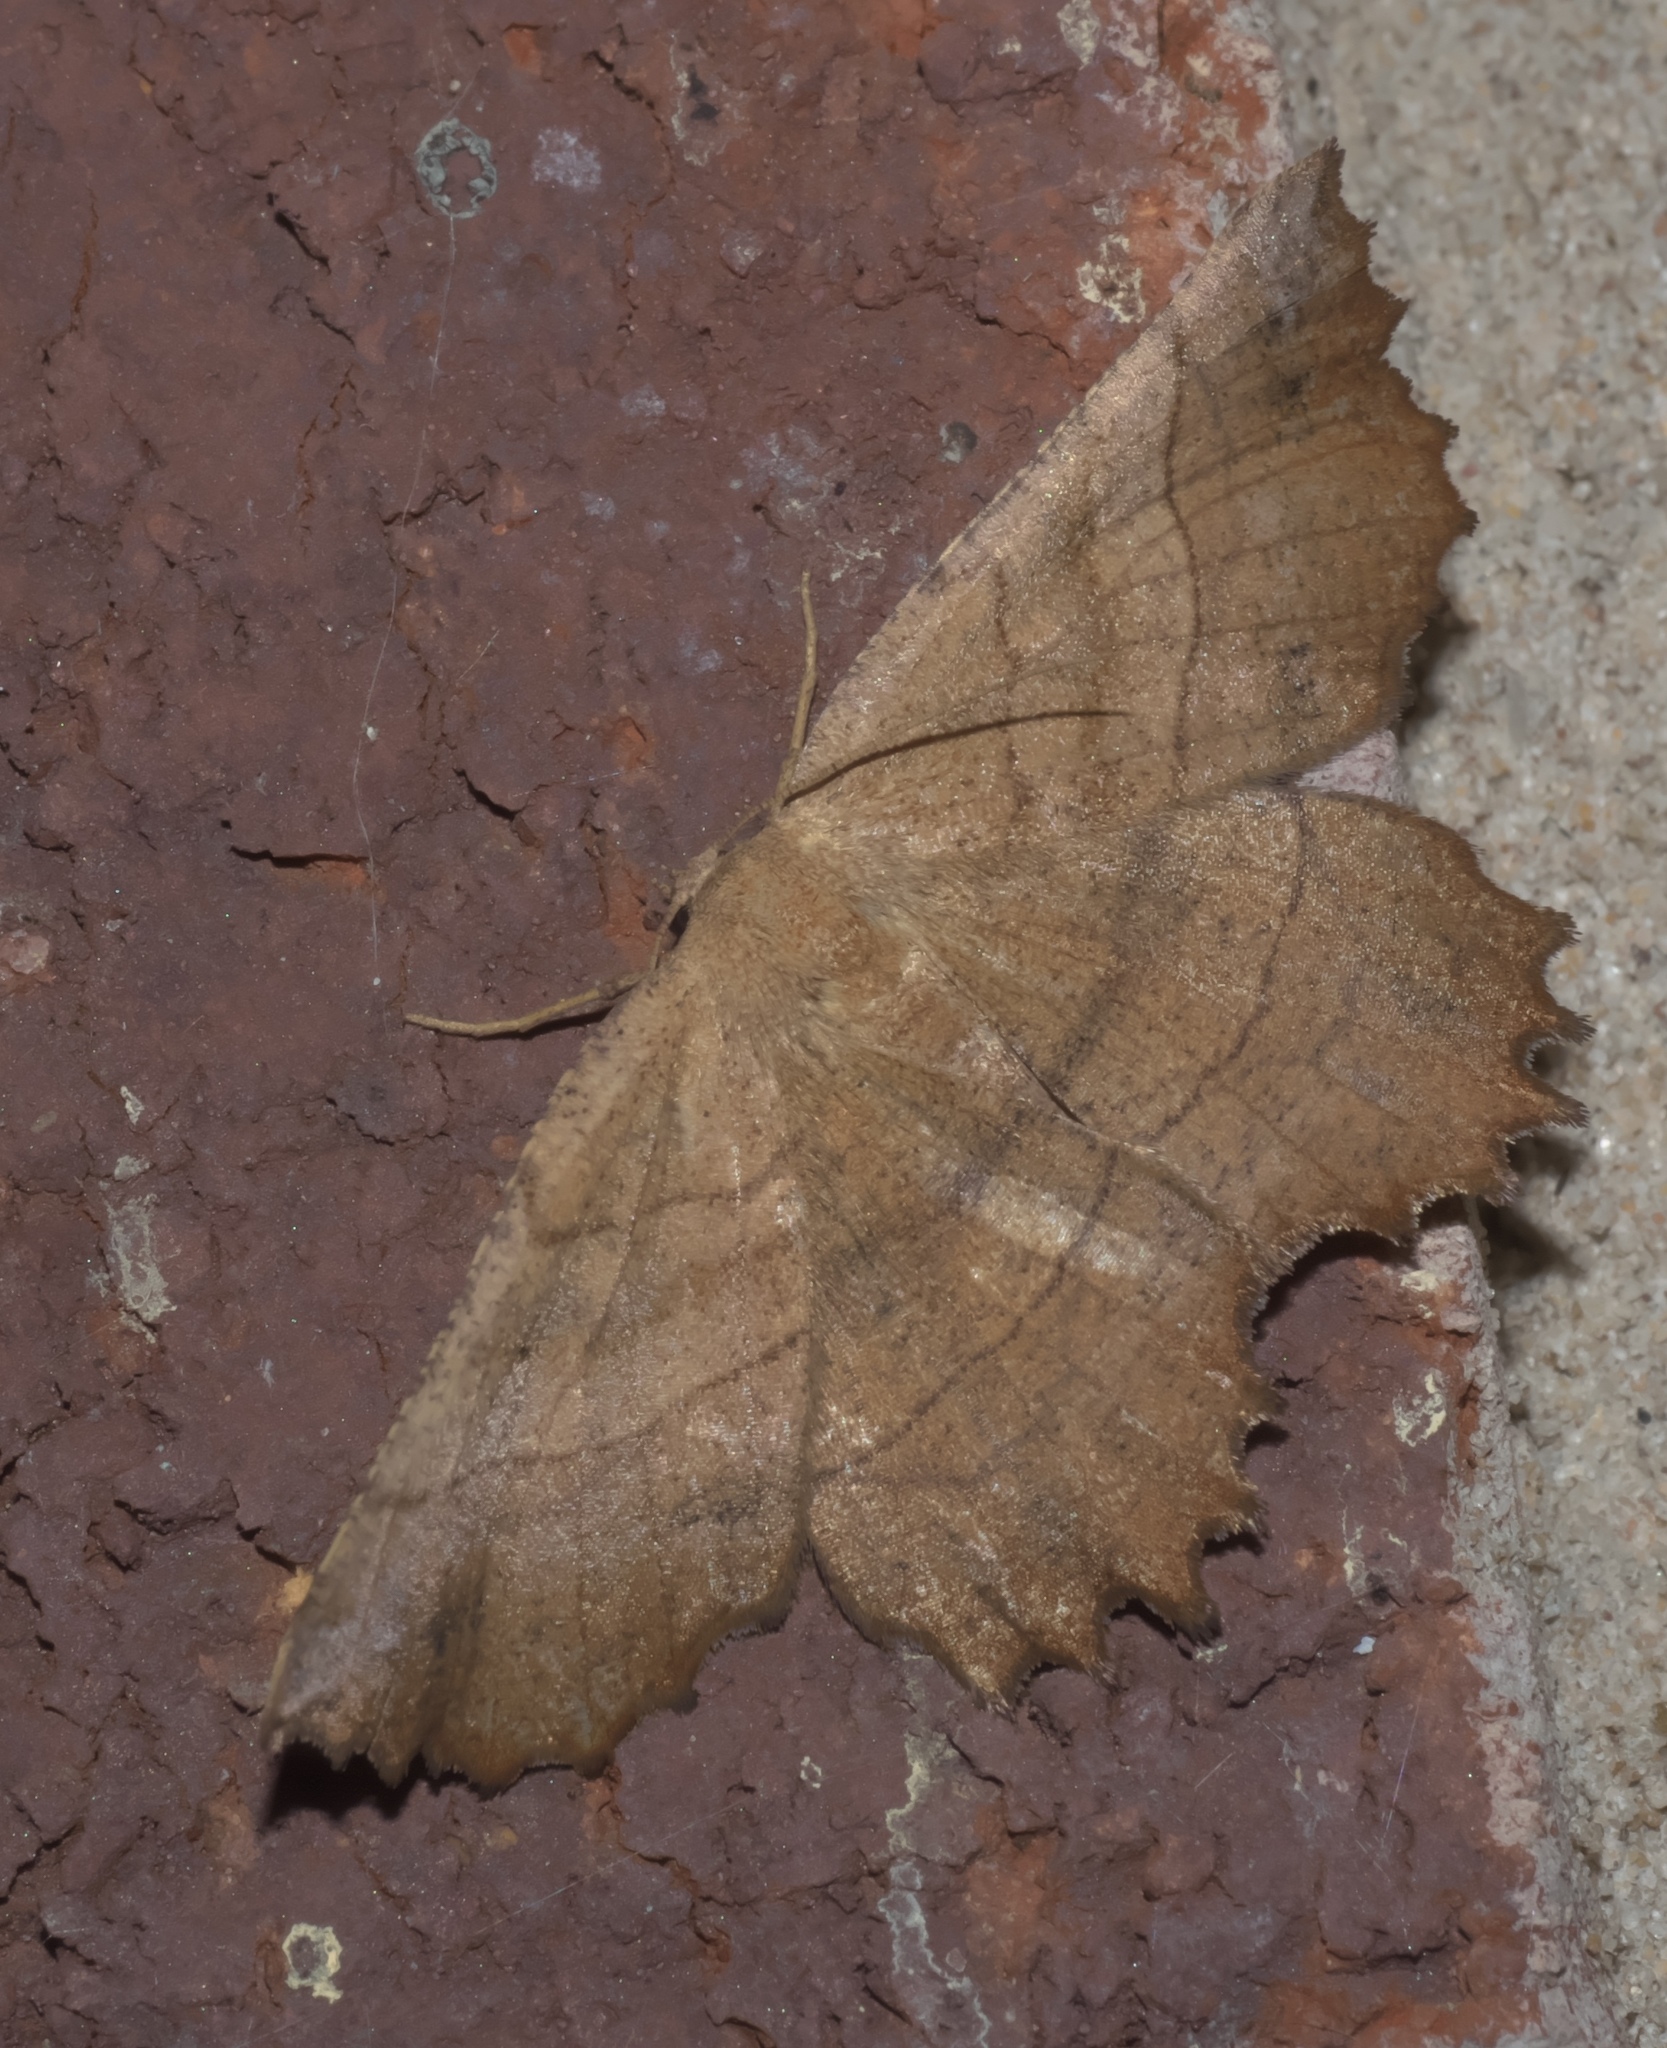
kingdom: Animalia
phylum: Arthropoda
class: Insecta
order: Lepidoptera
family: Geometridae
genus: Euchlaena
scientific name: Euchlaena johnsonaria
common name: Johnson's euchlaena
